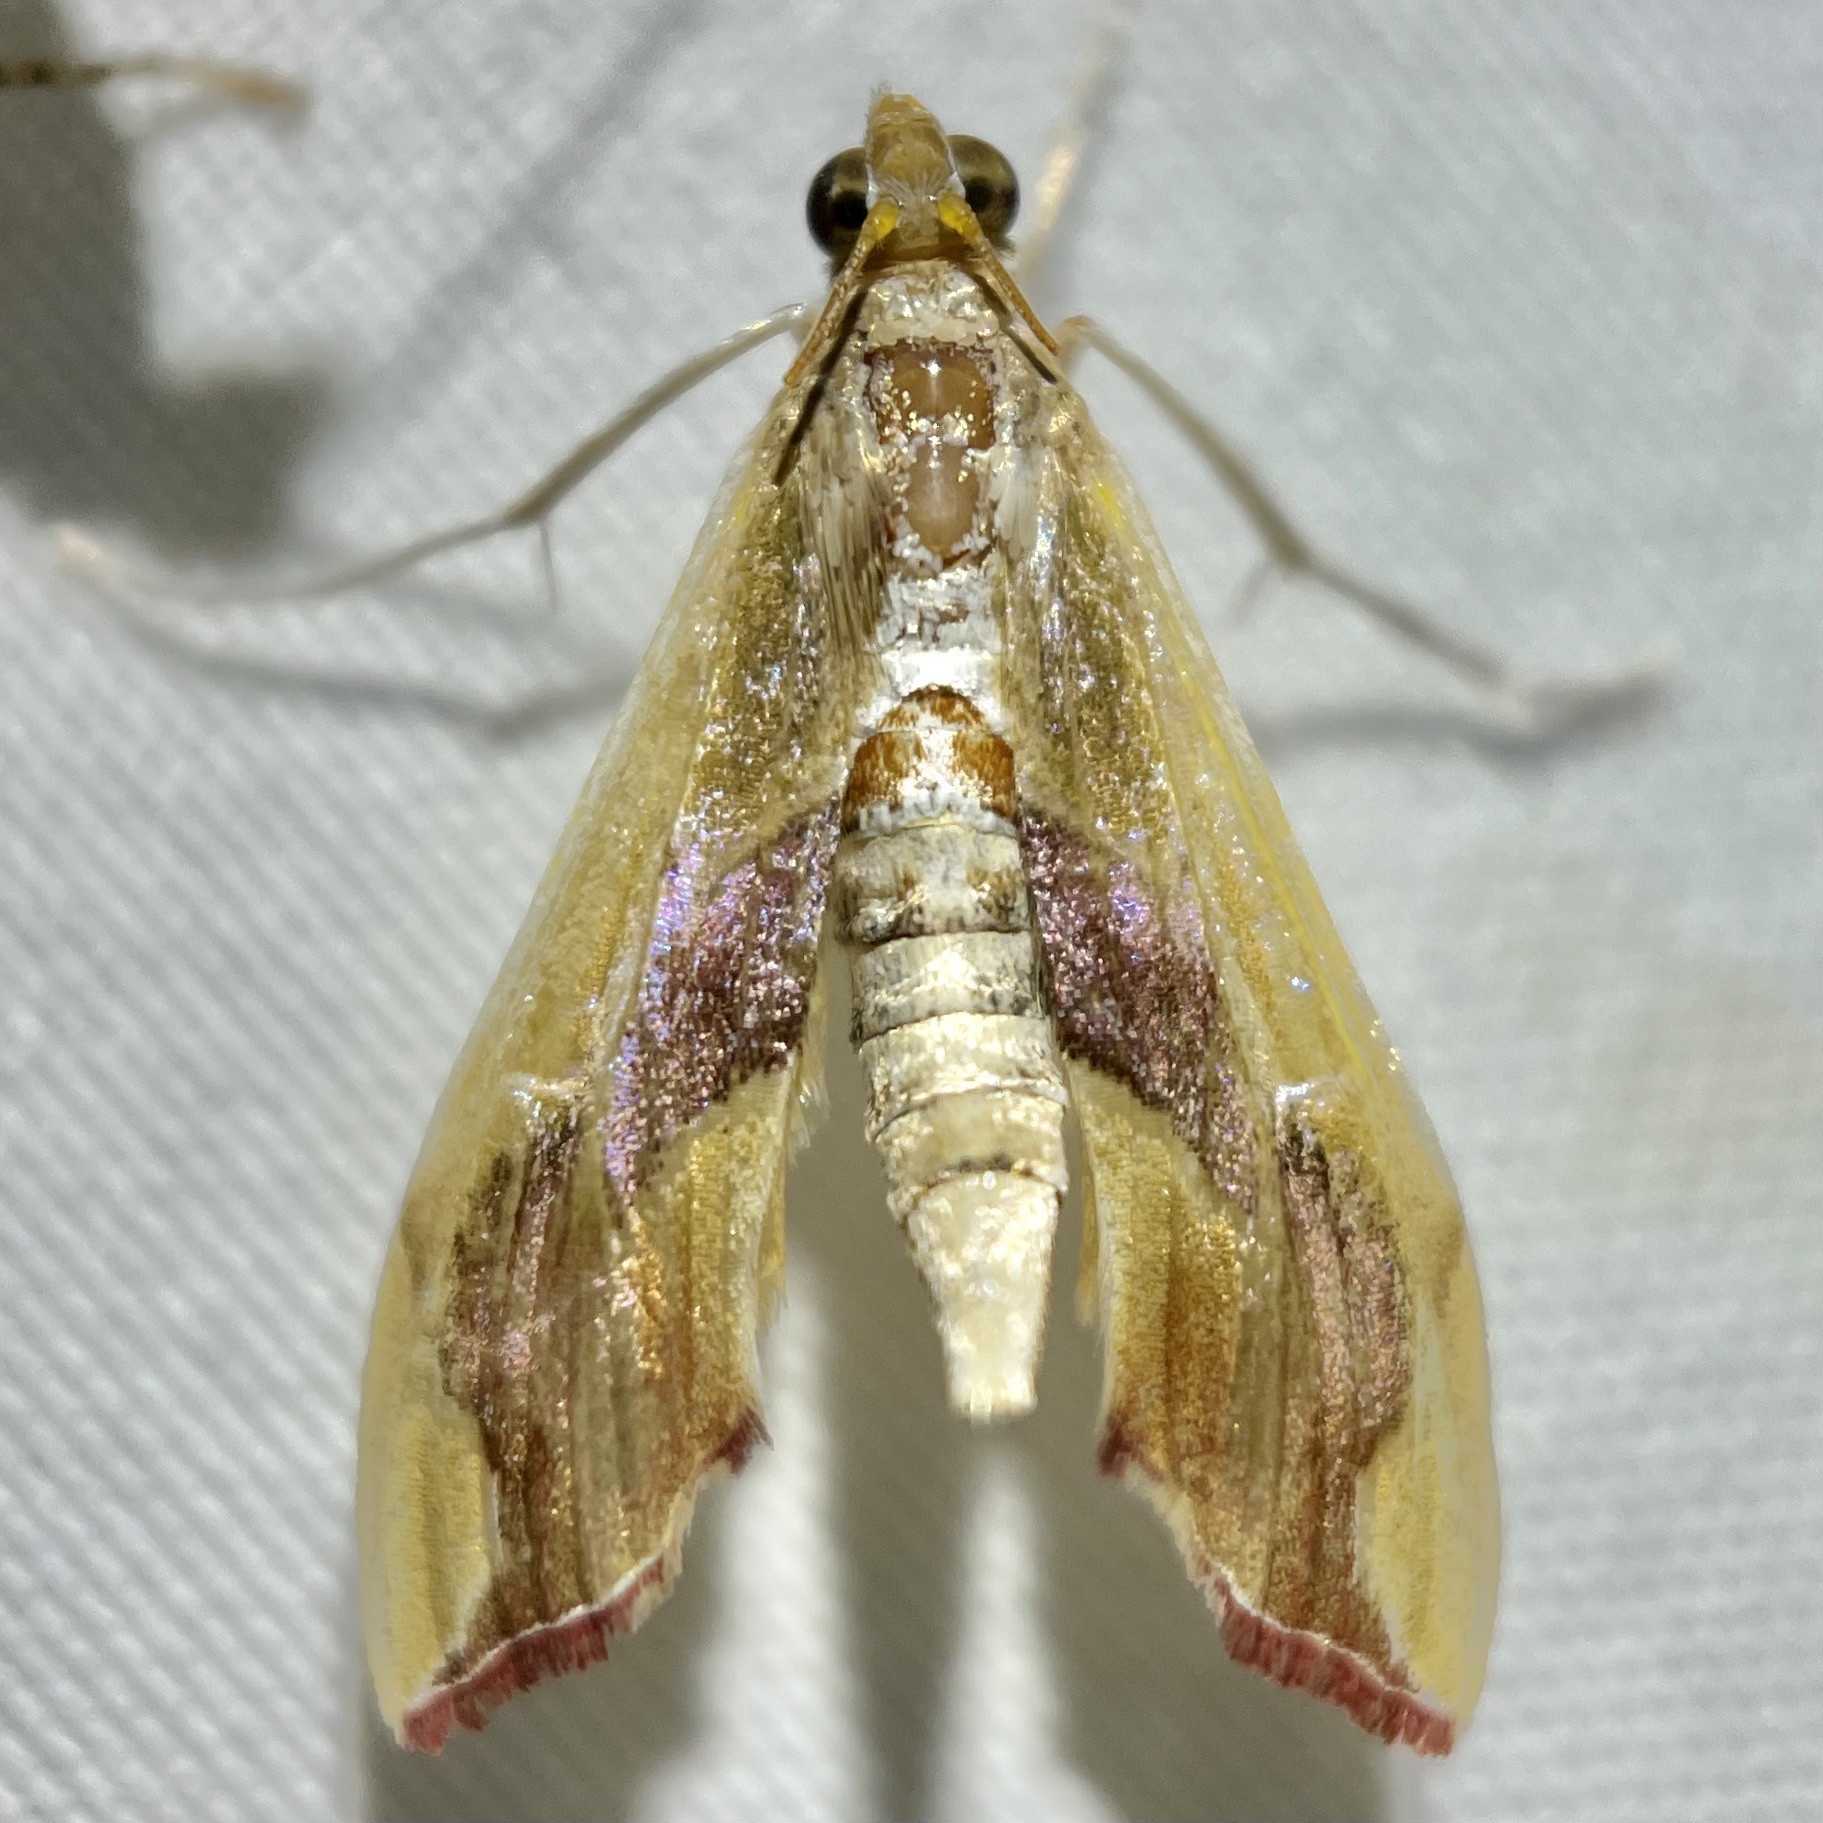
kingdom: Animalia
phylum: Arthropoda
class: Insecta
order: Lepidoptera
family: Crambidae
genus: Agathodes
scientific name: Agathodes monstralis
